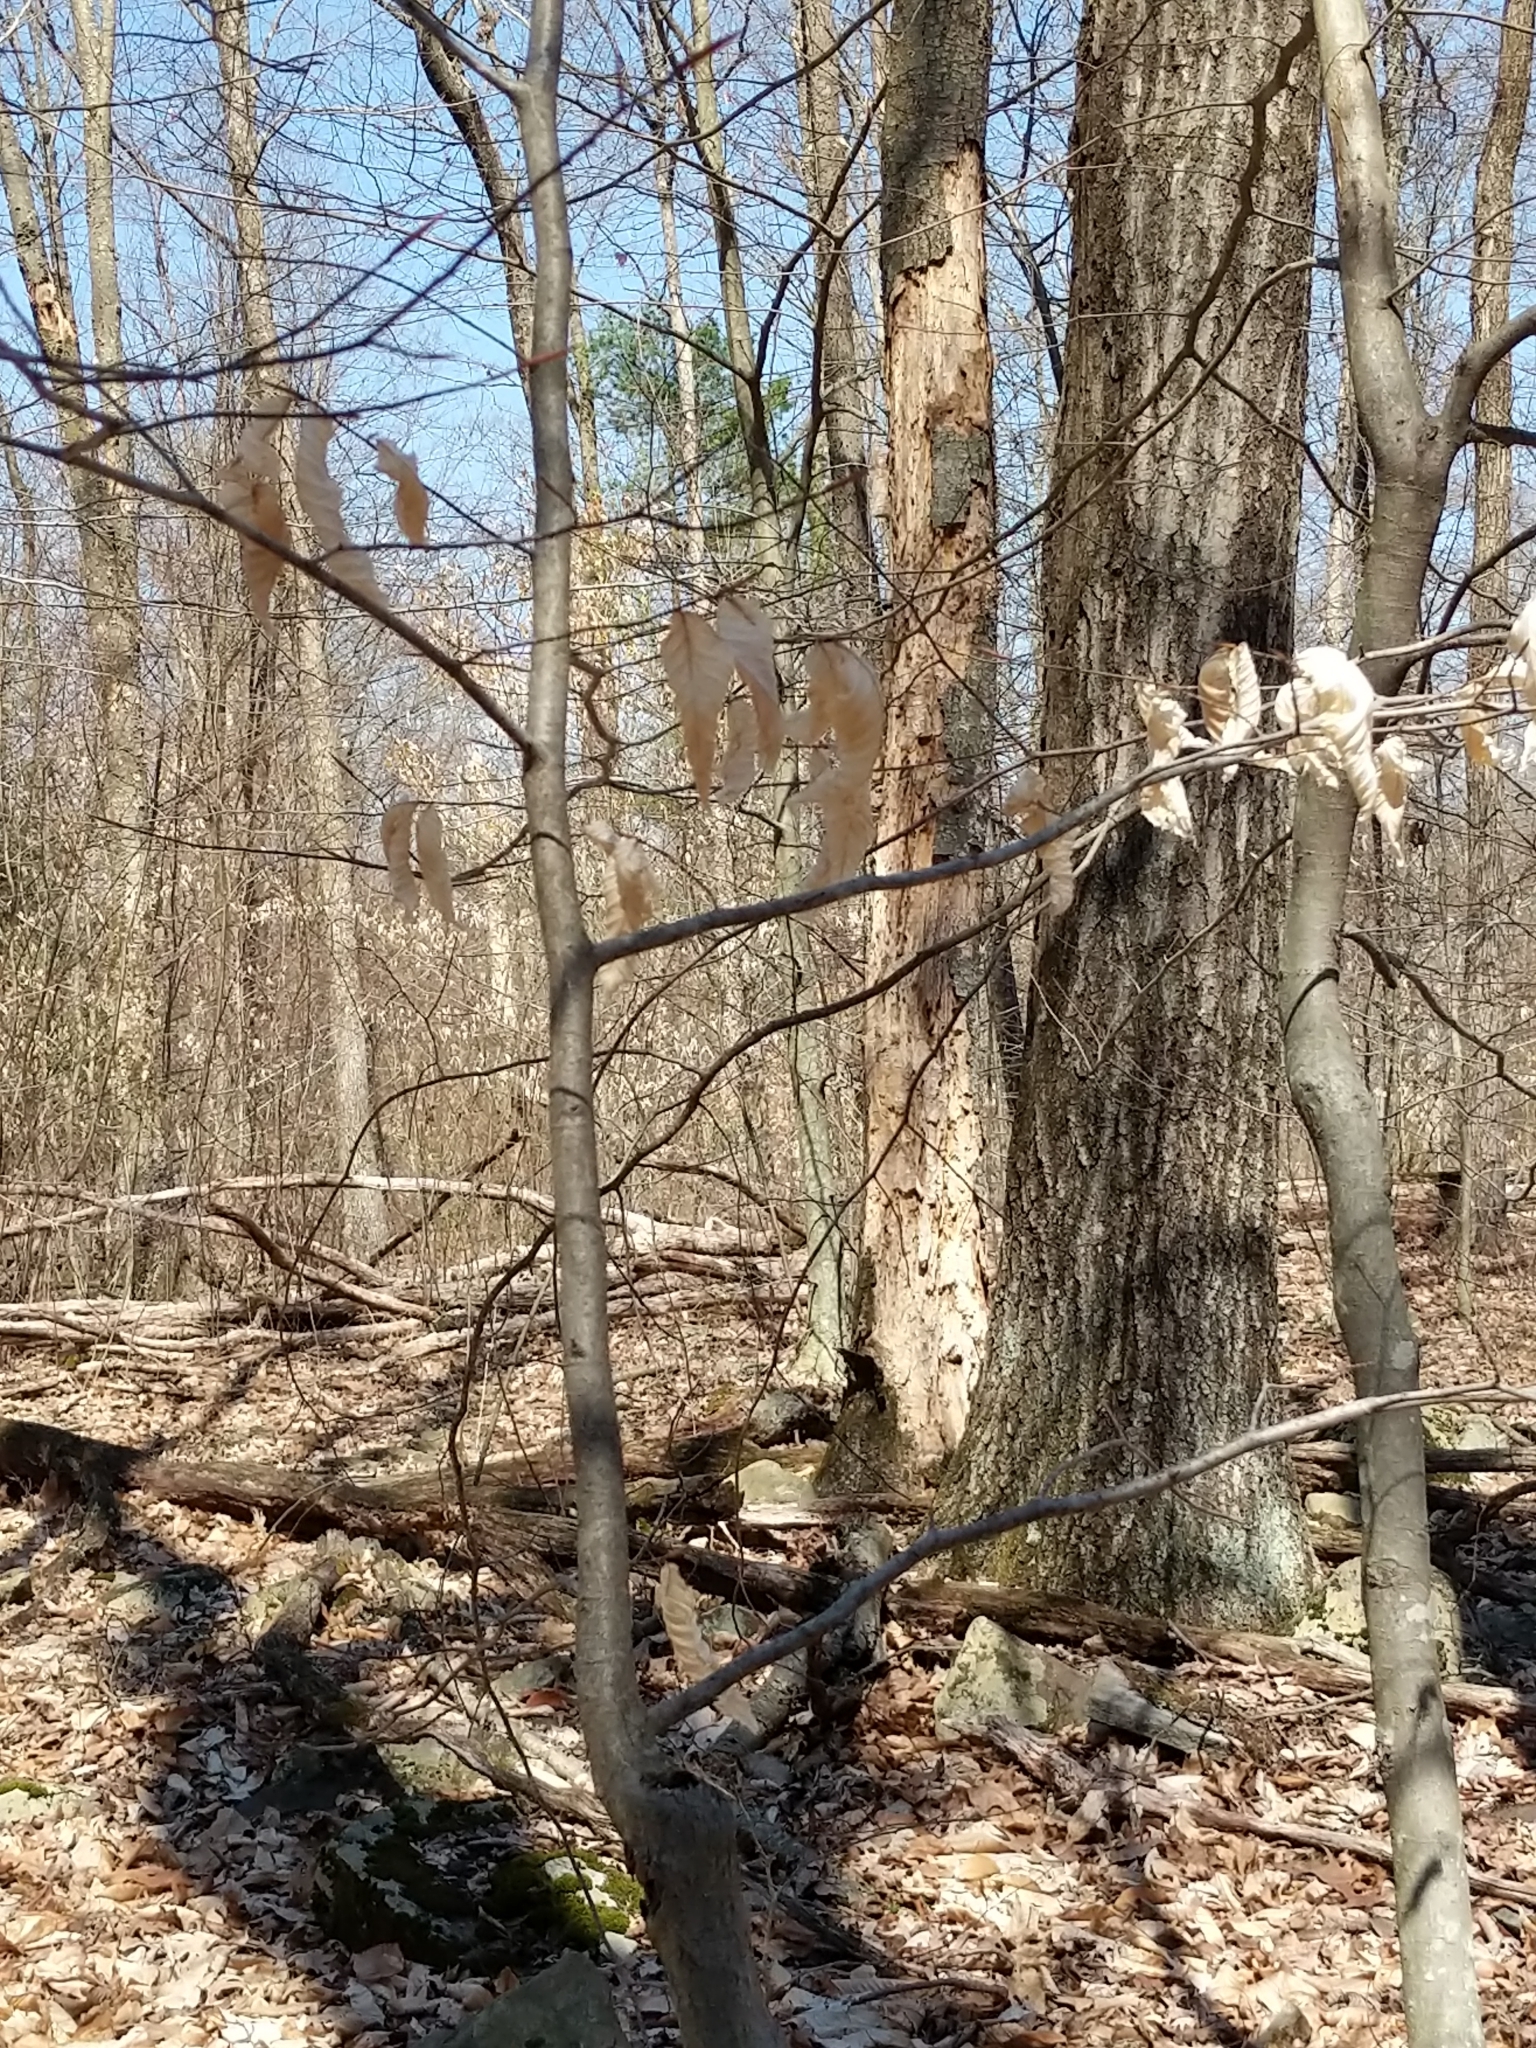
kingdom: Plantae
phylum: Tracheophyta
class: Magnoliopsida
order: Fagales
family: Fagaceae
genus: Fagus
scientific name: Fagus grandifolia
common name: American beech
